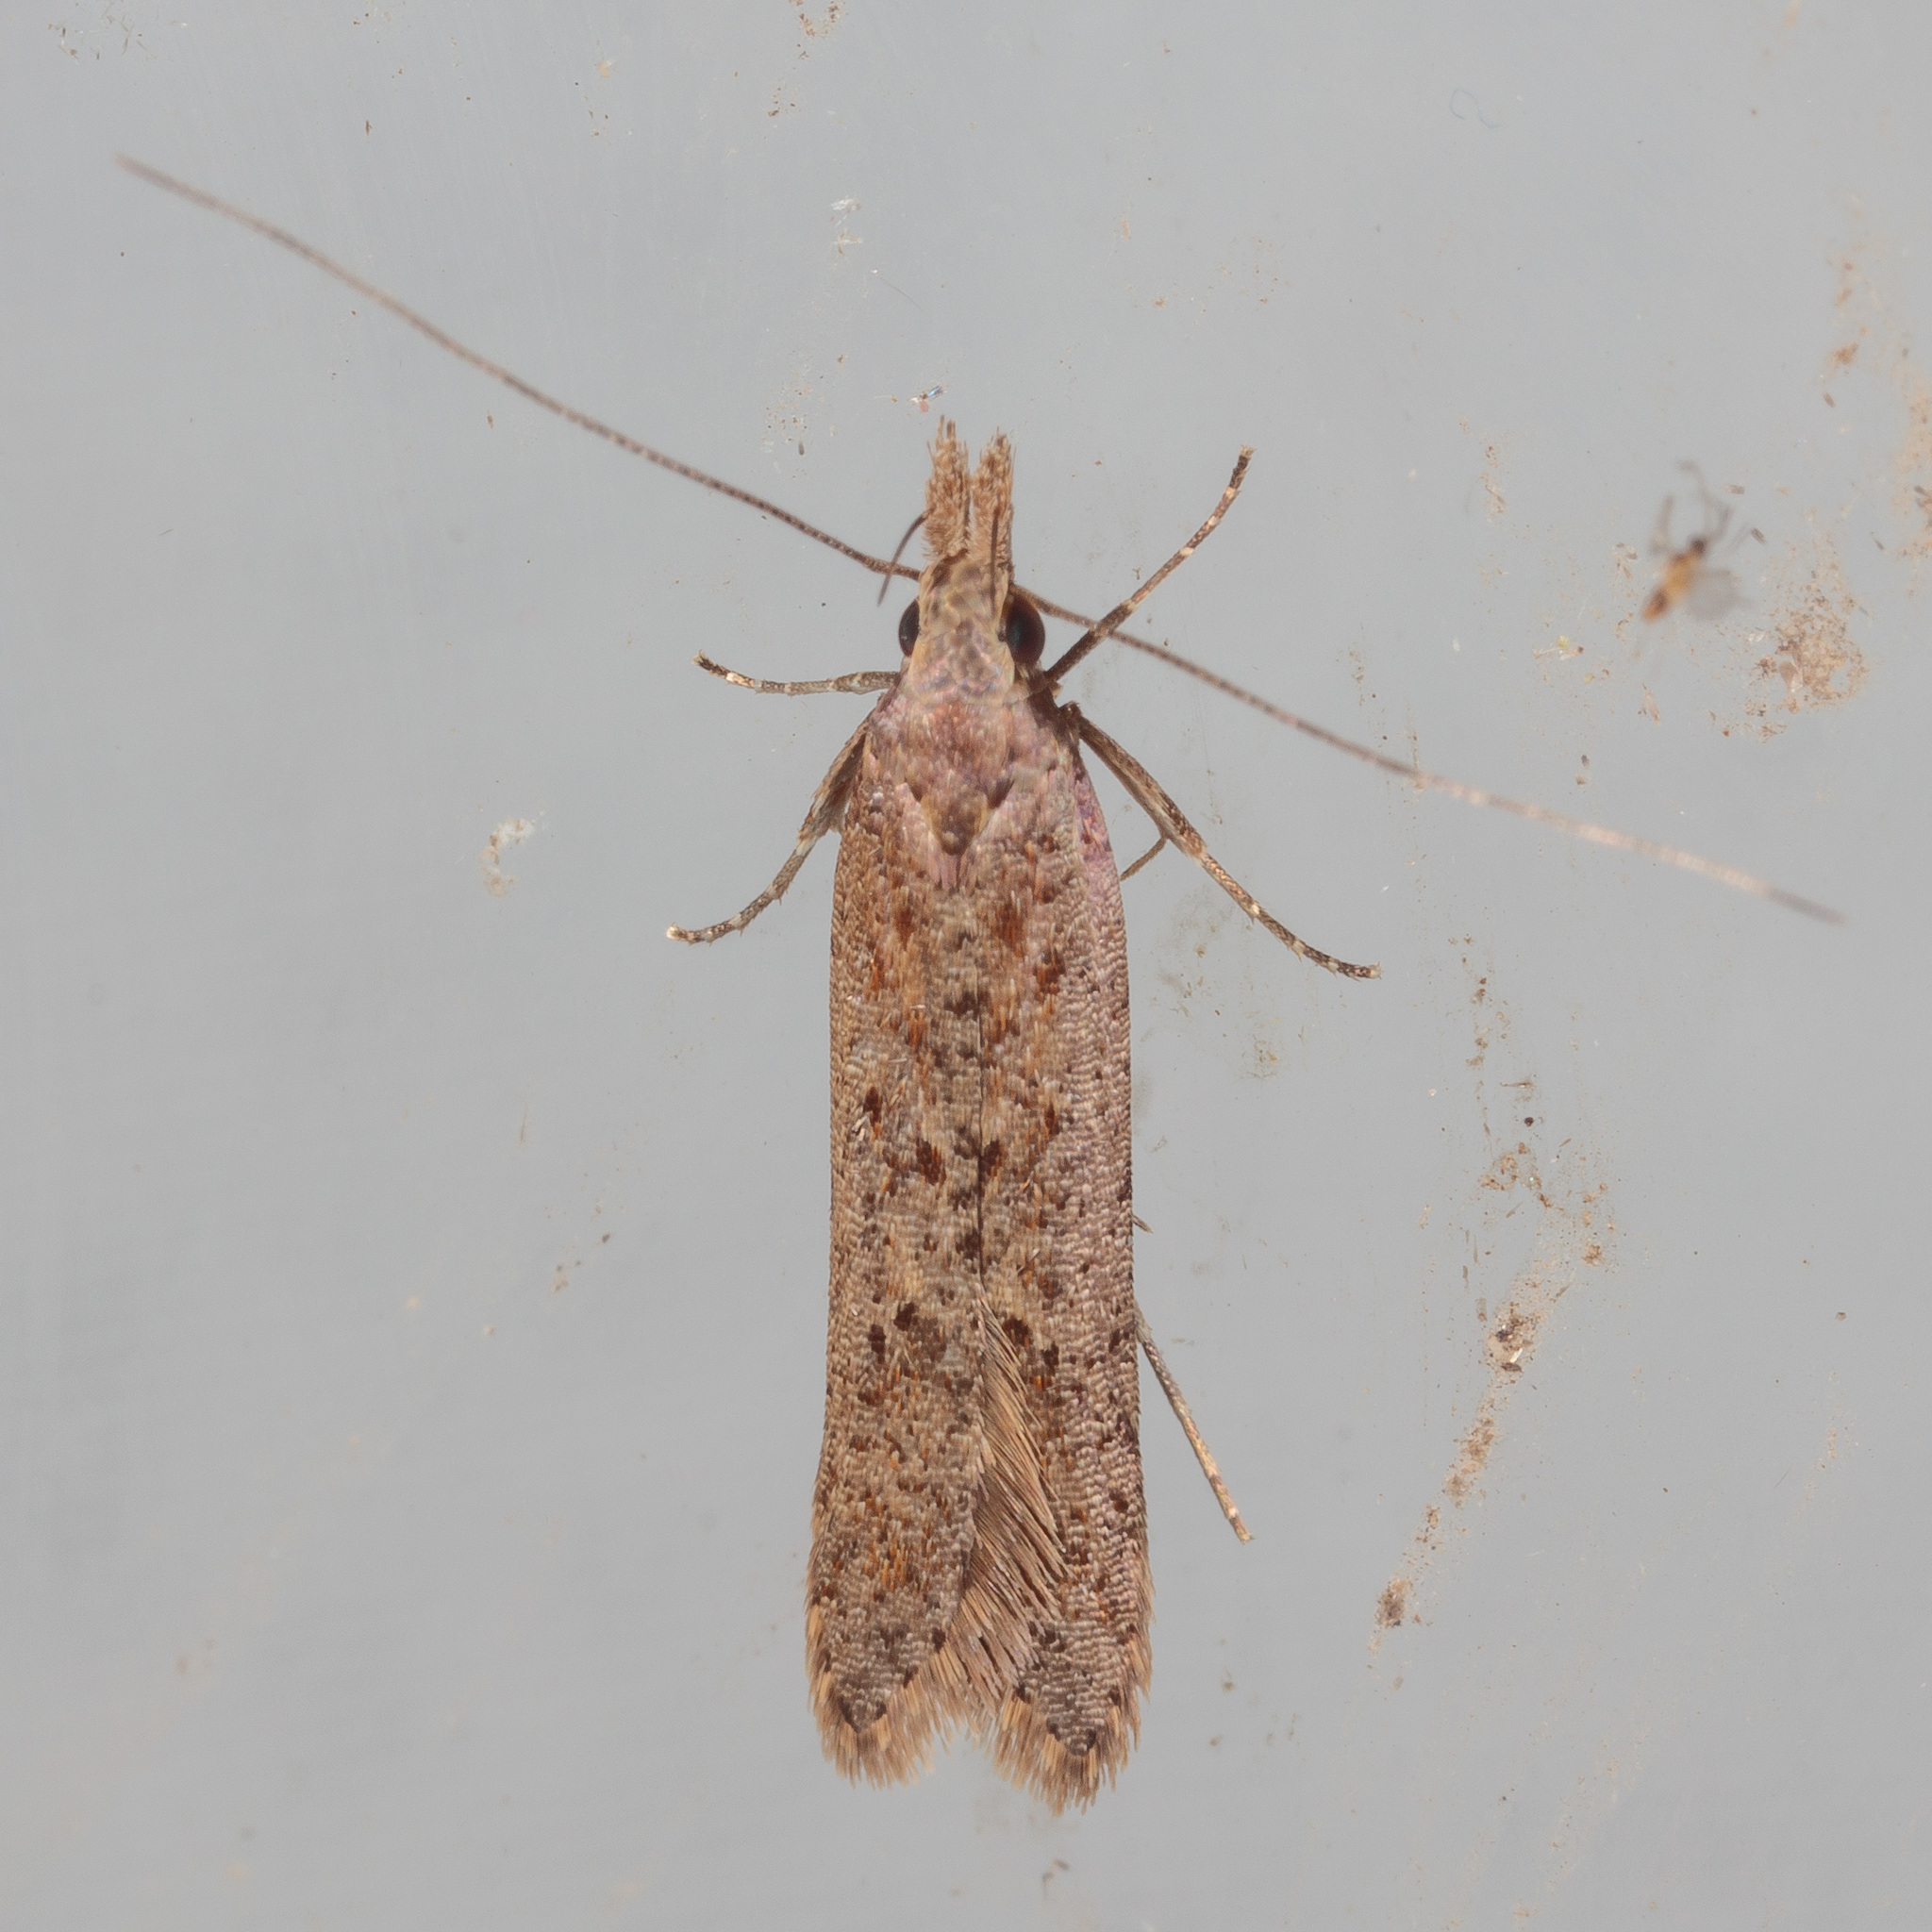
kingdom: Animalia
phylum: Arthropoda
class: Insecta
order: Lepidoptera
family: Gelechiidae
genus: Dichomeris
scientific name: Dichomeris ligulella
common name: Moth
